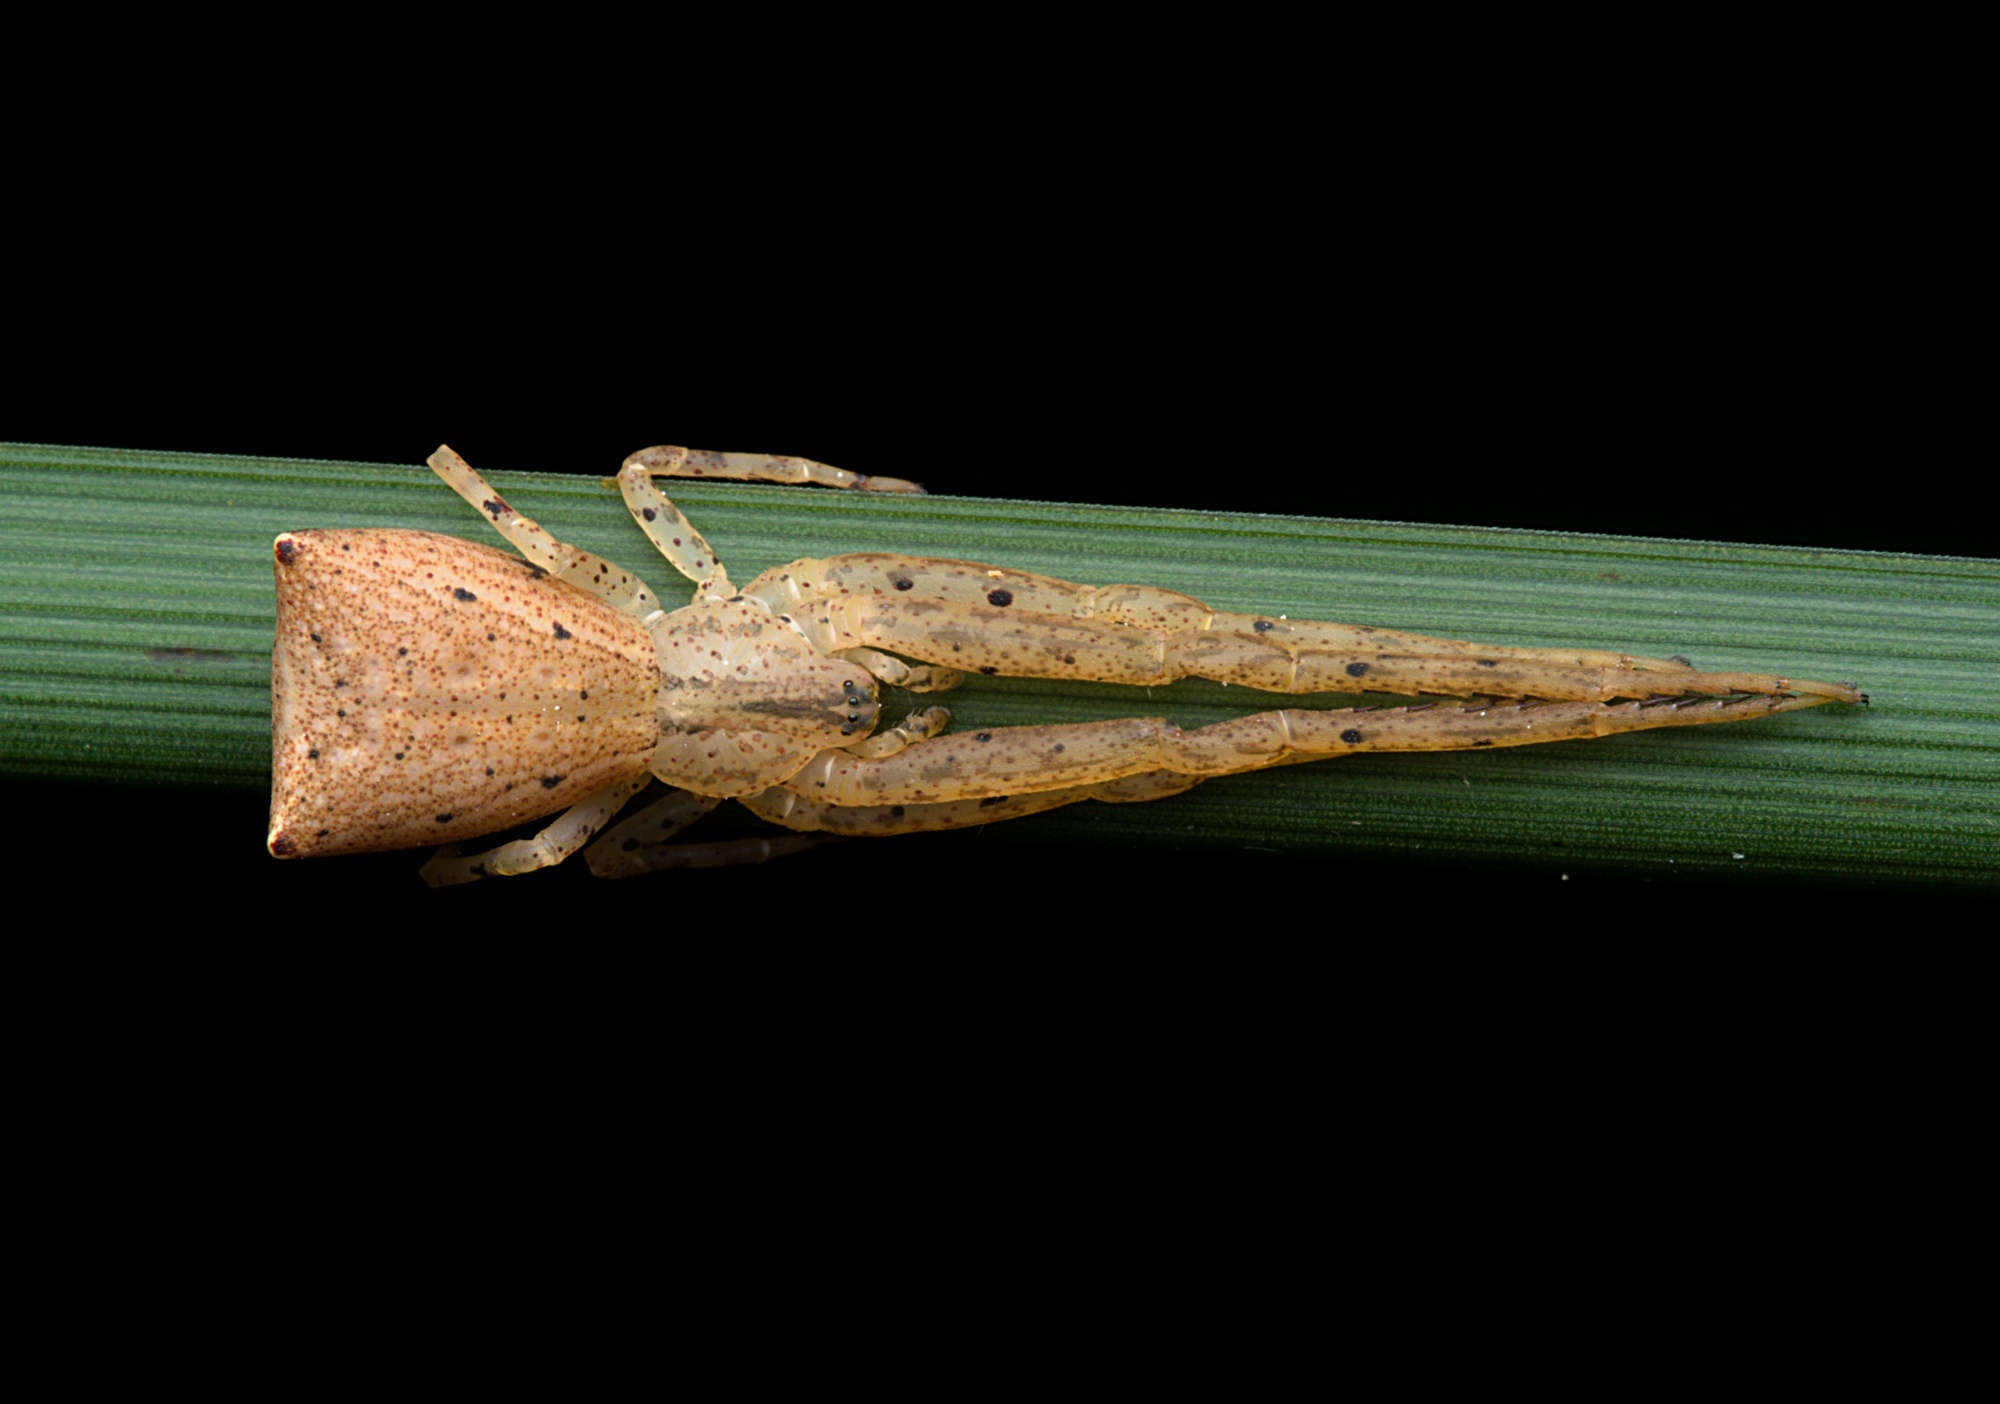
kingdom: Animalia
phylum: Arthropoda
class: Arachnida
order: Araneae
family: Thomisidae
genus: Sidymella
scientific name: Sidymella longipes
